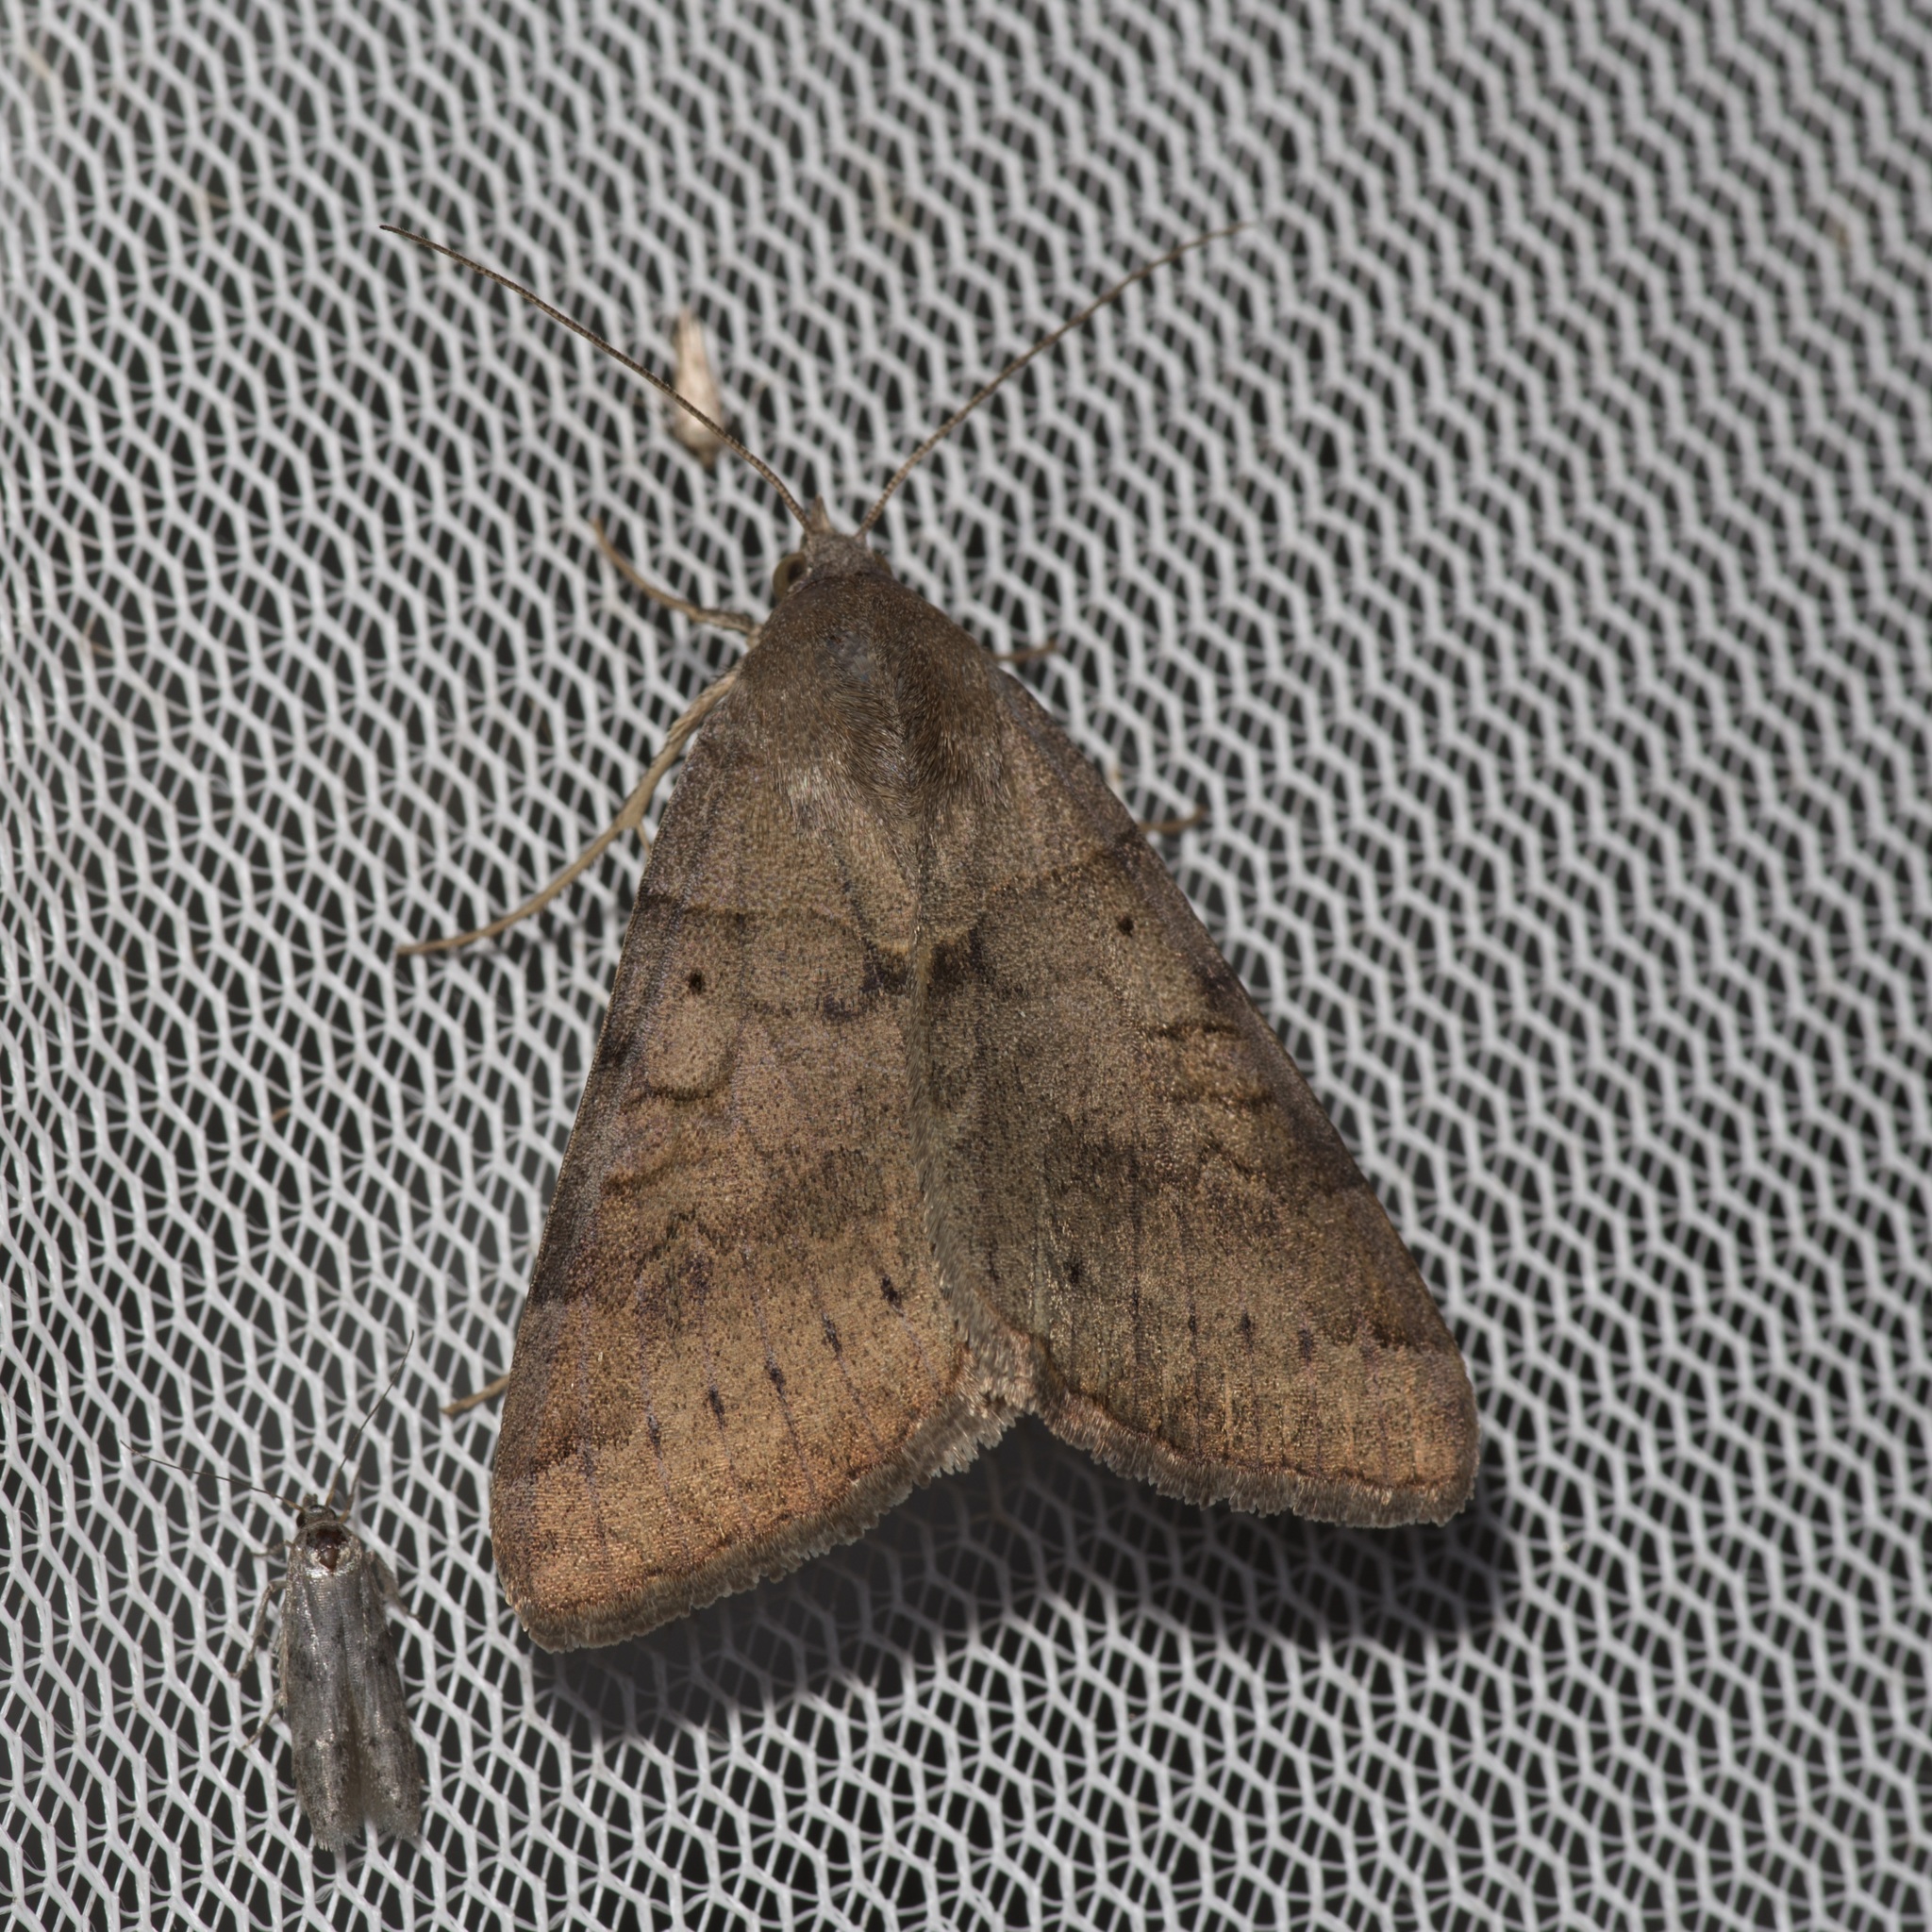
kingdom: Animalia
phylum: Arthropoda
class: Insecta
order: Lepidoptera
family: Erebidae
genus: Caenurgina
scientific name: Caenurgina erechtea
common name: Forage looper moth
